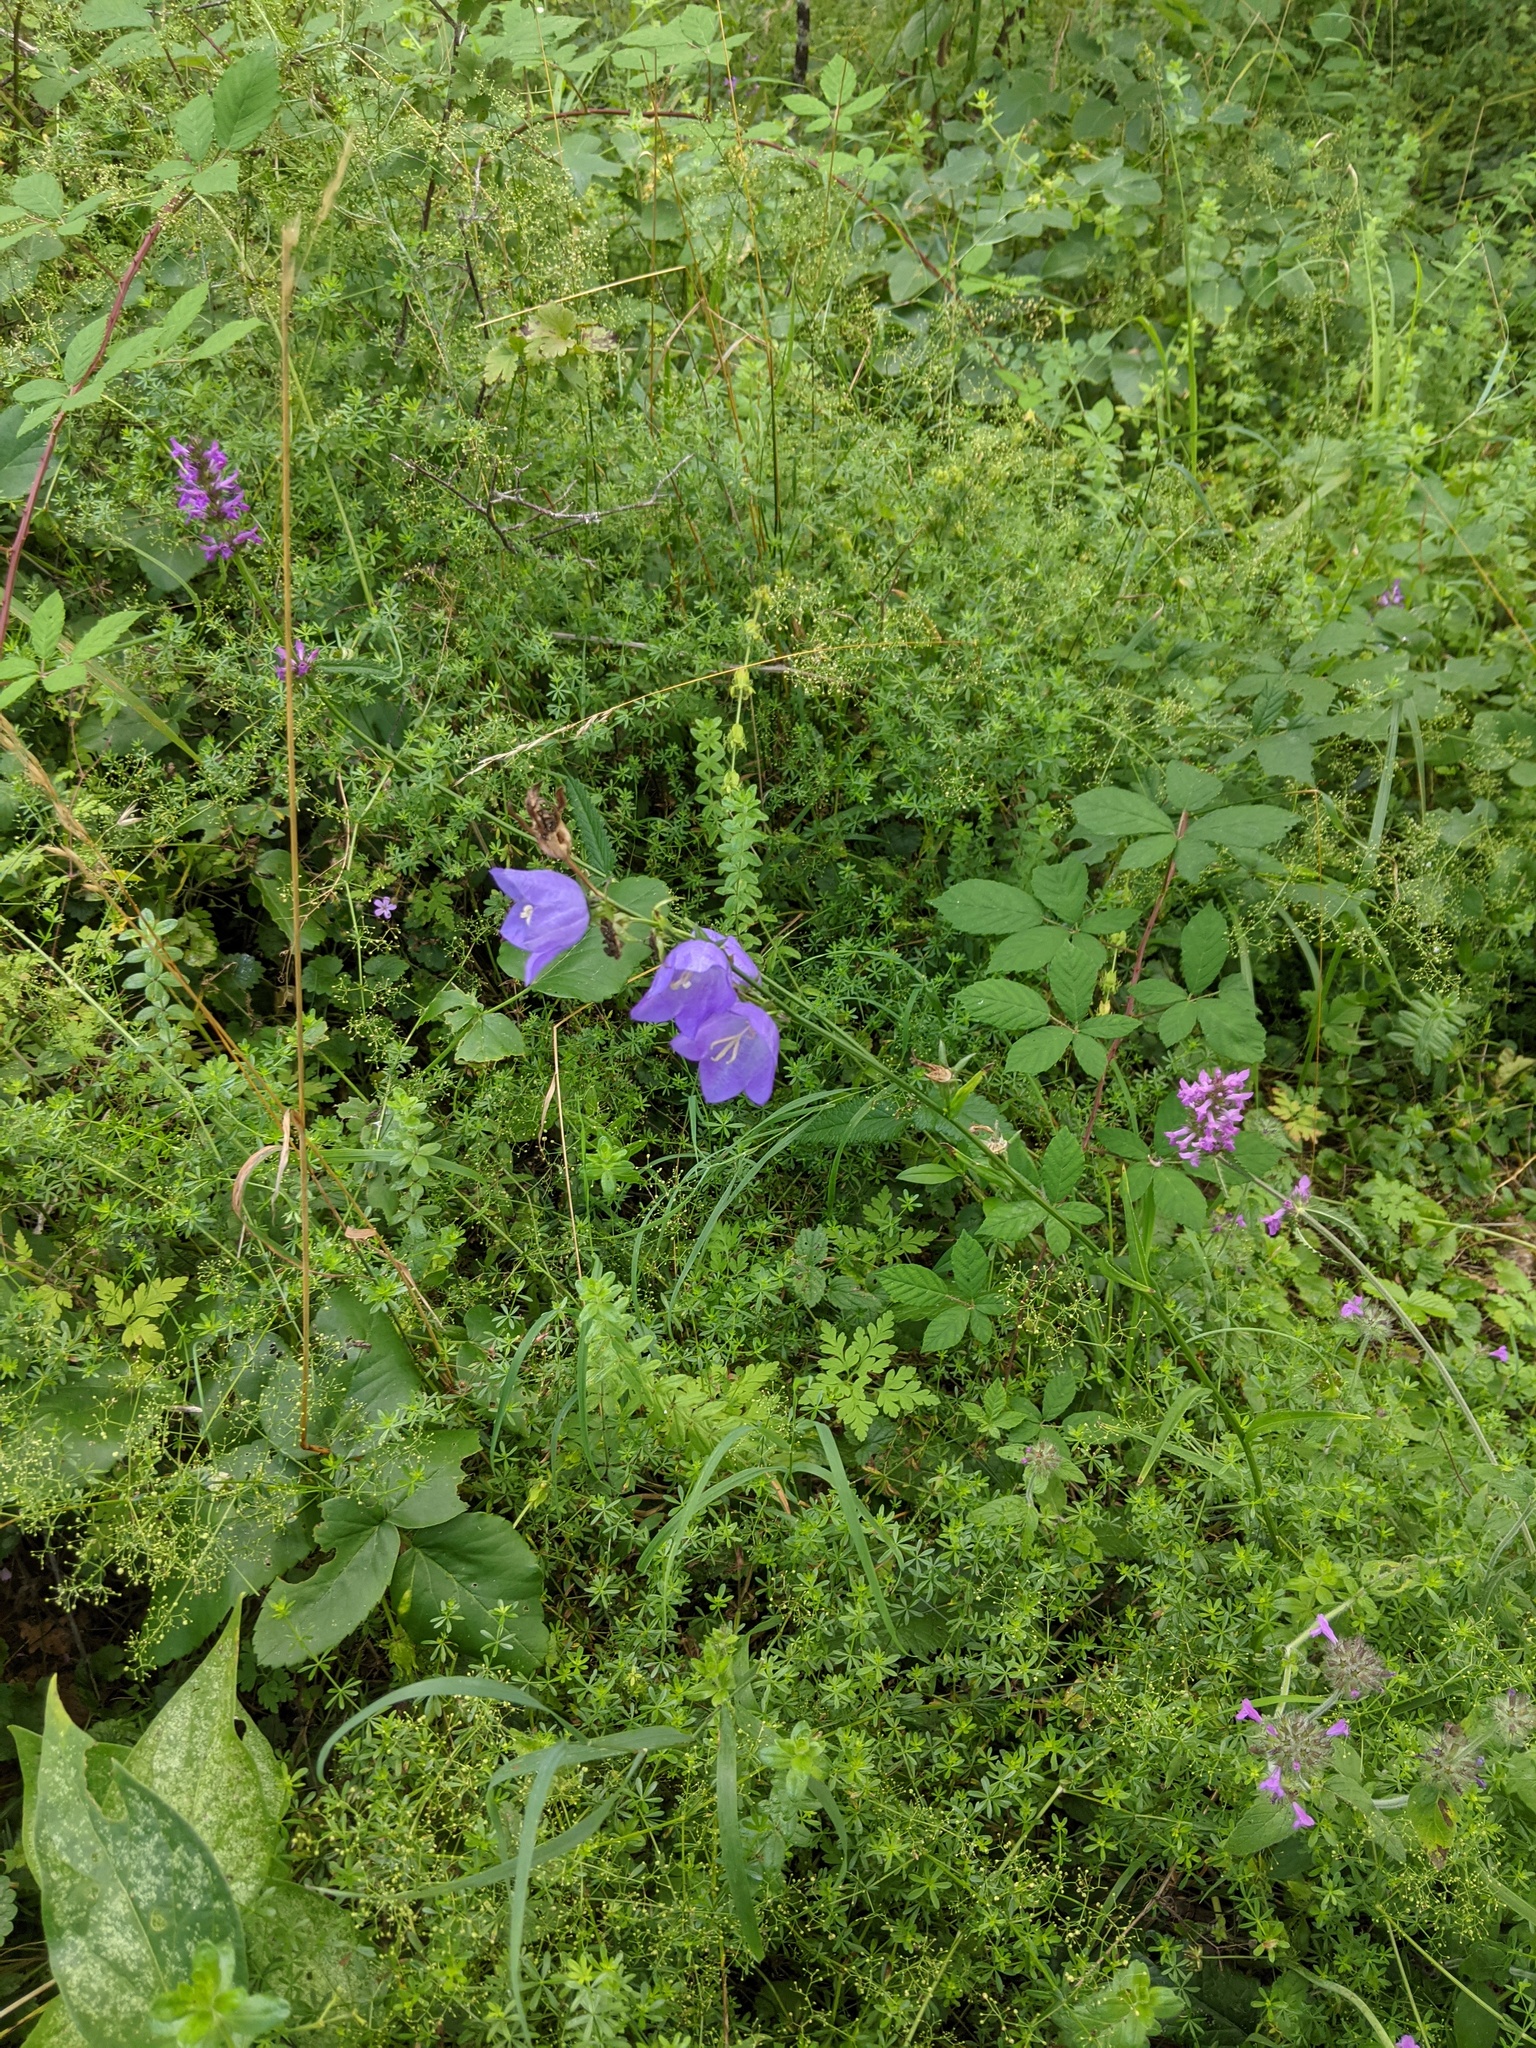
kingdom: Plantae
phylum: Tracheophyta
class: Magnoliopsida
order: Asterales
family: Campanulaceae
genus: Campanula
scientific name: Campanula persicifolia
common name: Peach-leaved bellflower
